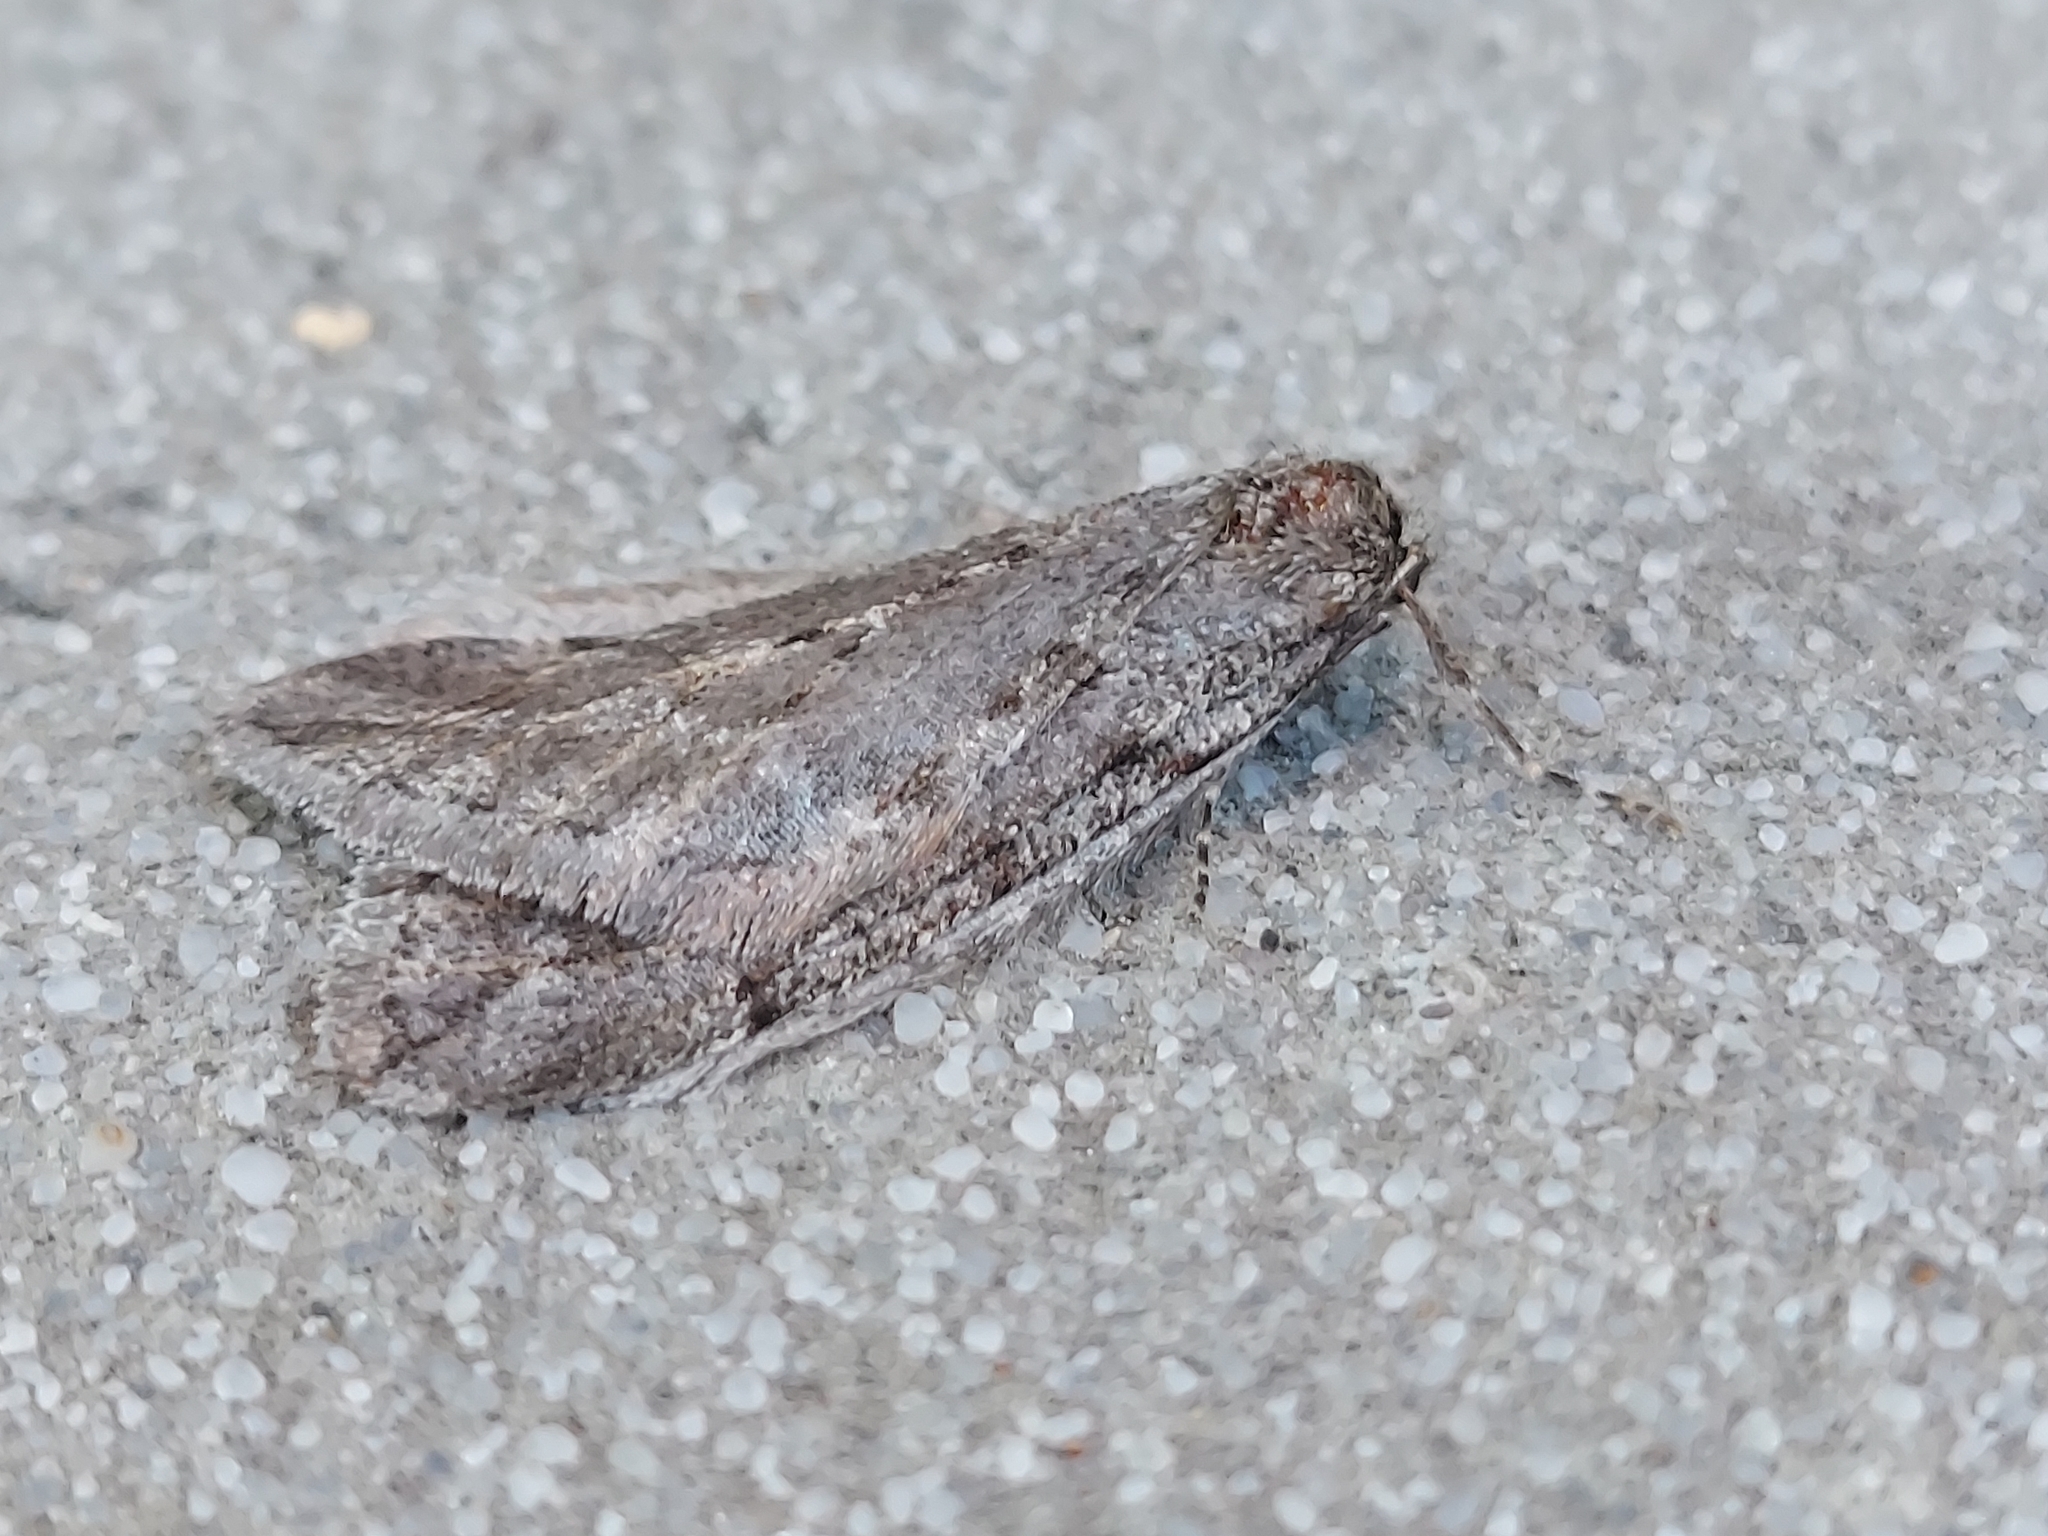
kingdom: Animalia
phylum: Arthropoda
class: Insecta
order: Lepidoptera
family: Geometridae
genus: Paleacrita
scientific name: Paleacrita vernata
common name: Spring cankerworm
